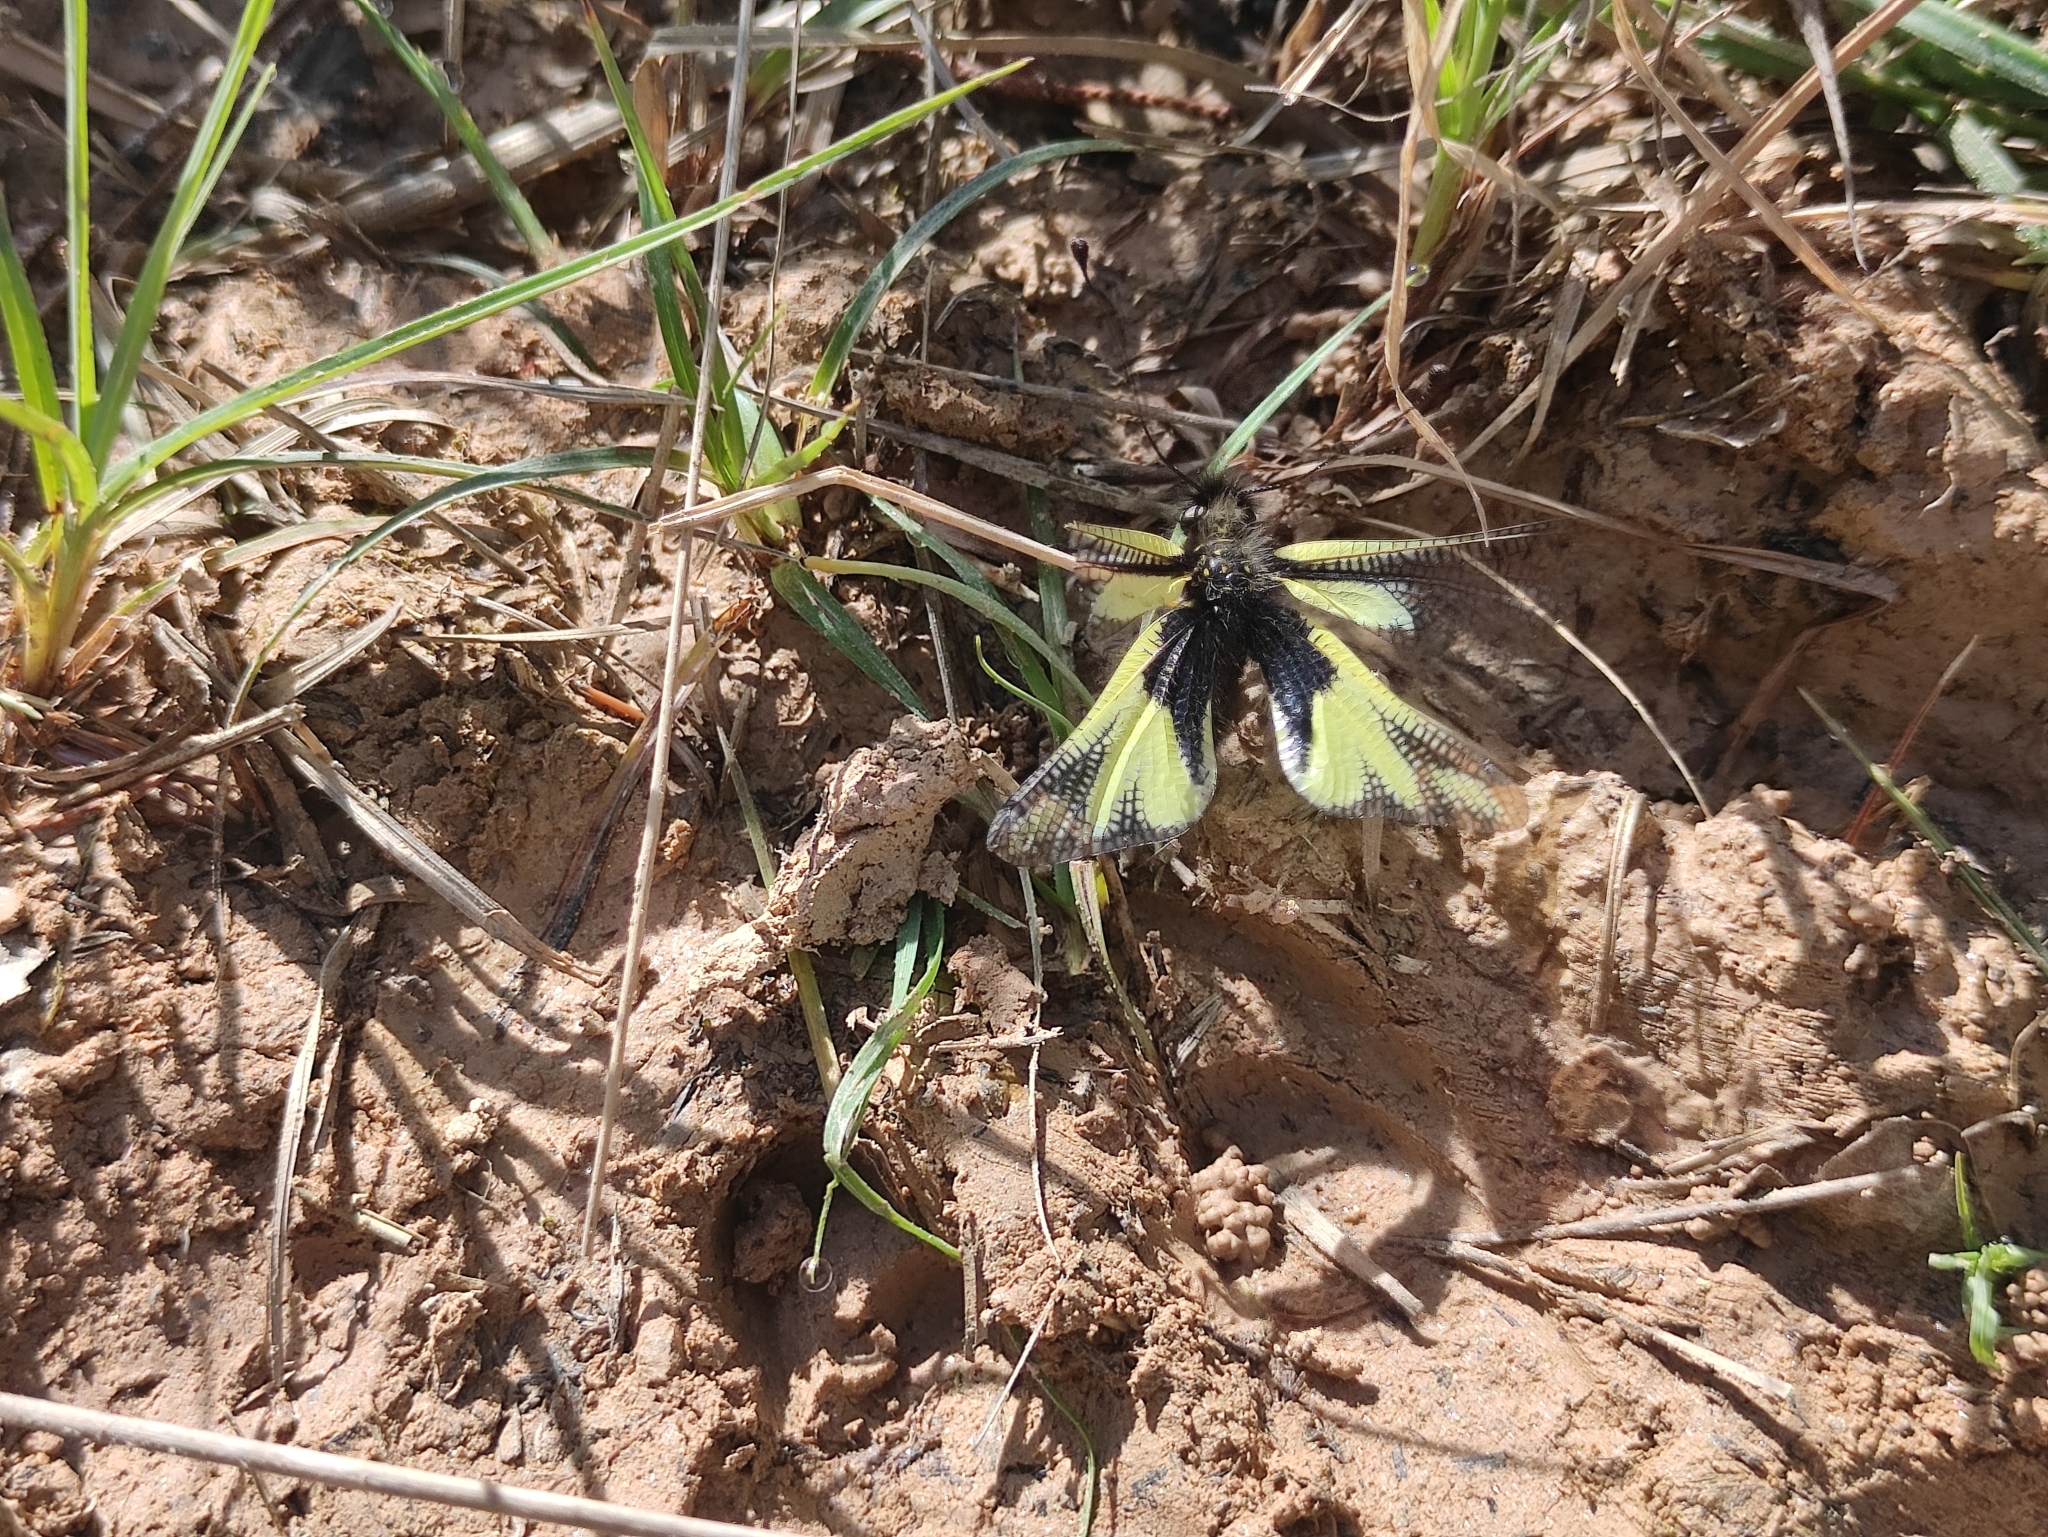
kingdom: Animalia
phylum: Arthropoda
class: Insecta
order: Neuroptera
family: Ascalaphidae
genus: Libelloides
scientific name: Libelloides coccajus
